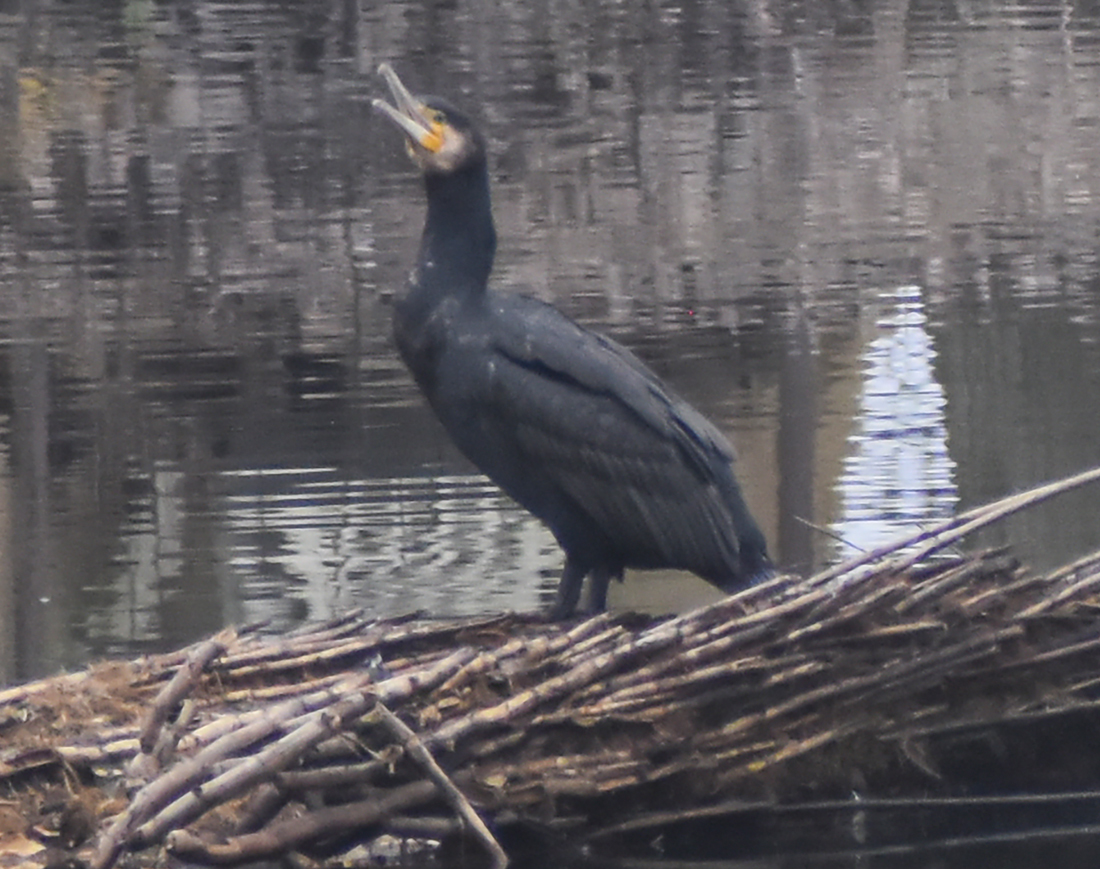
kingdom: Animalia
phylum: Chordata
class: Aves
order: Suliformes
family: Phalacrocoracidae
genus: Phalacrocorax
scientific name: Phalacrocorax carbo
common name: Great cormorant
